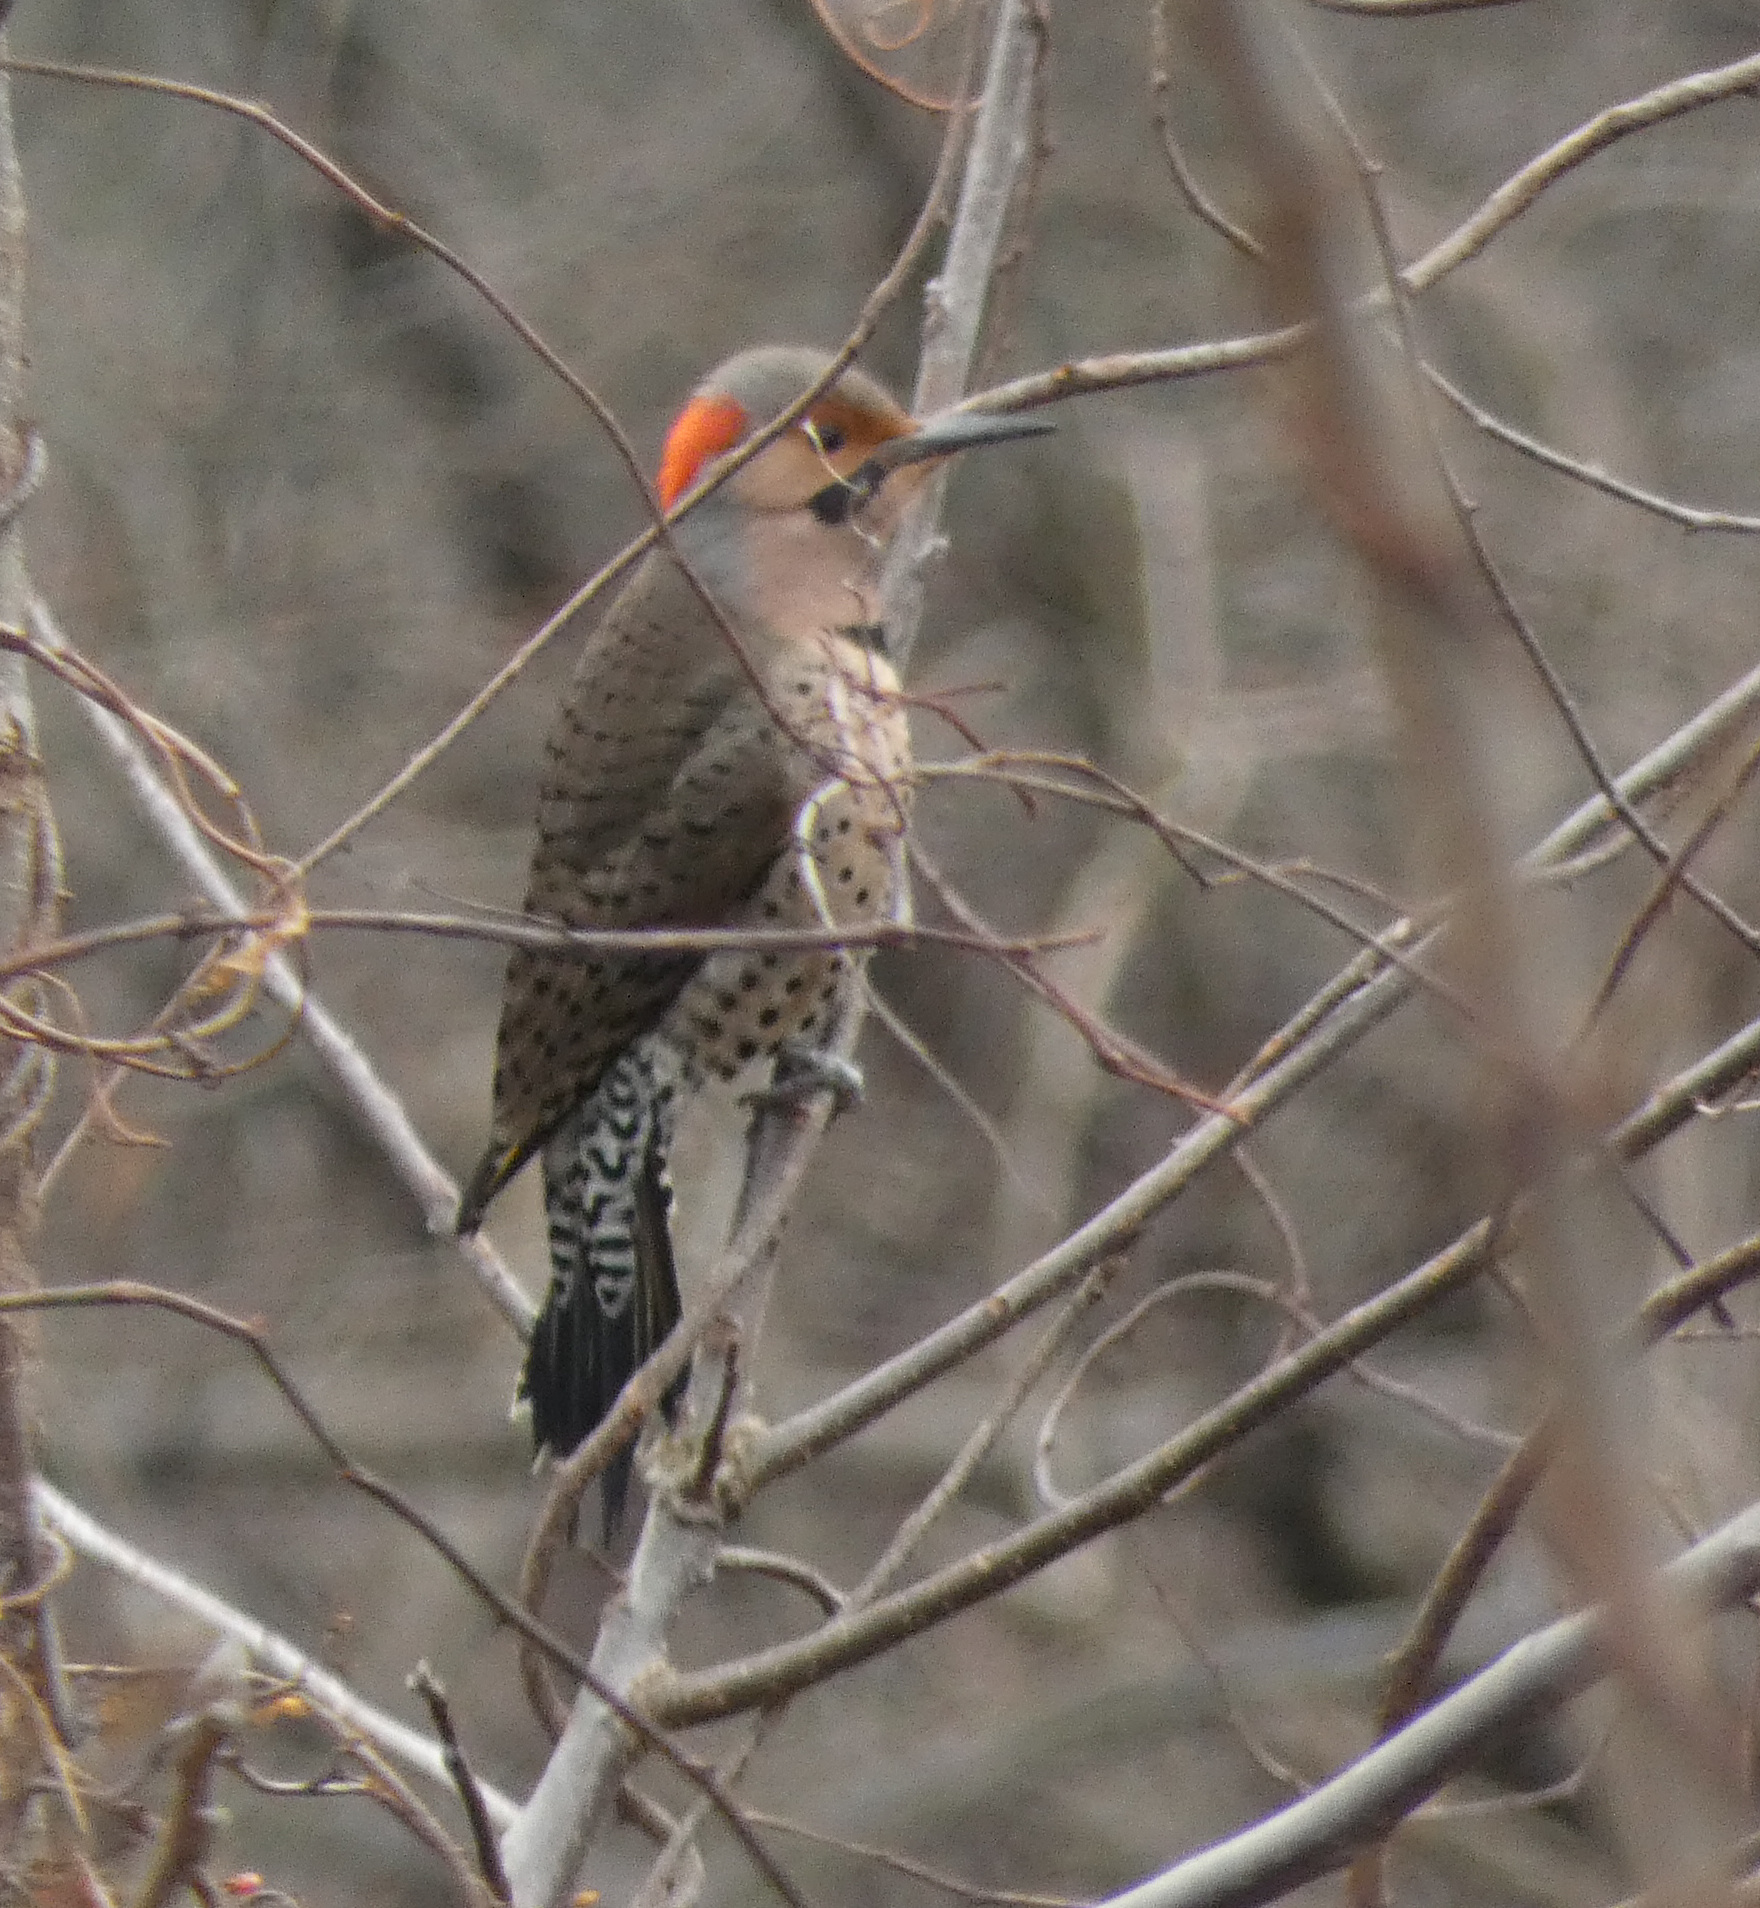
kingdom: Animalia
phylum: Chordata
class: Aves
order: Piciformes
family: Picidae
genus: Colaptes
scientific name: Colaptes auratus
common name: Northern flicker
